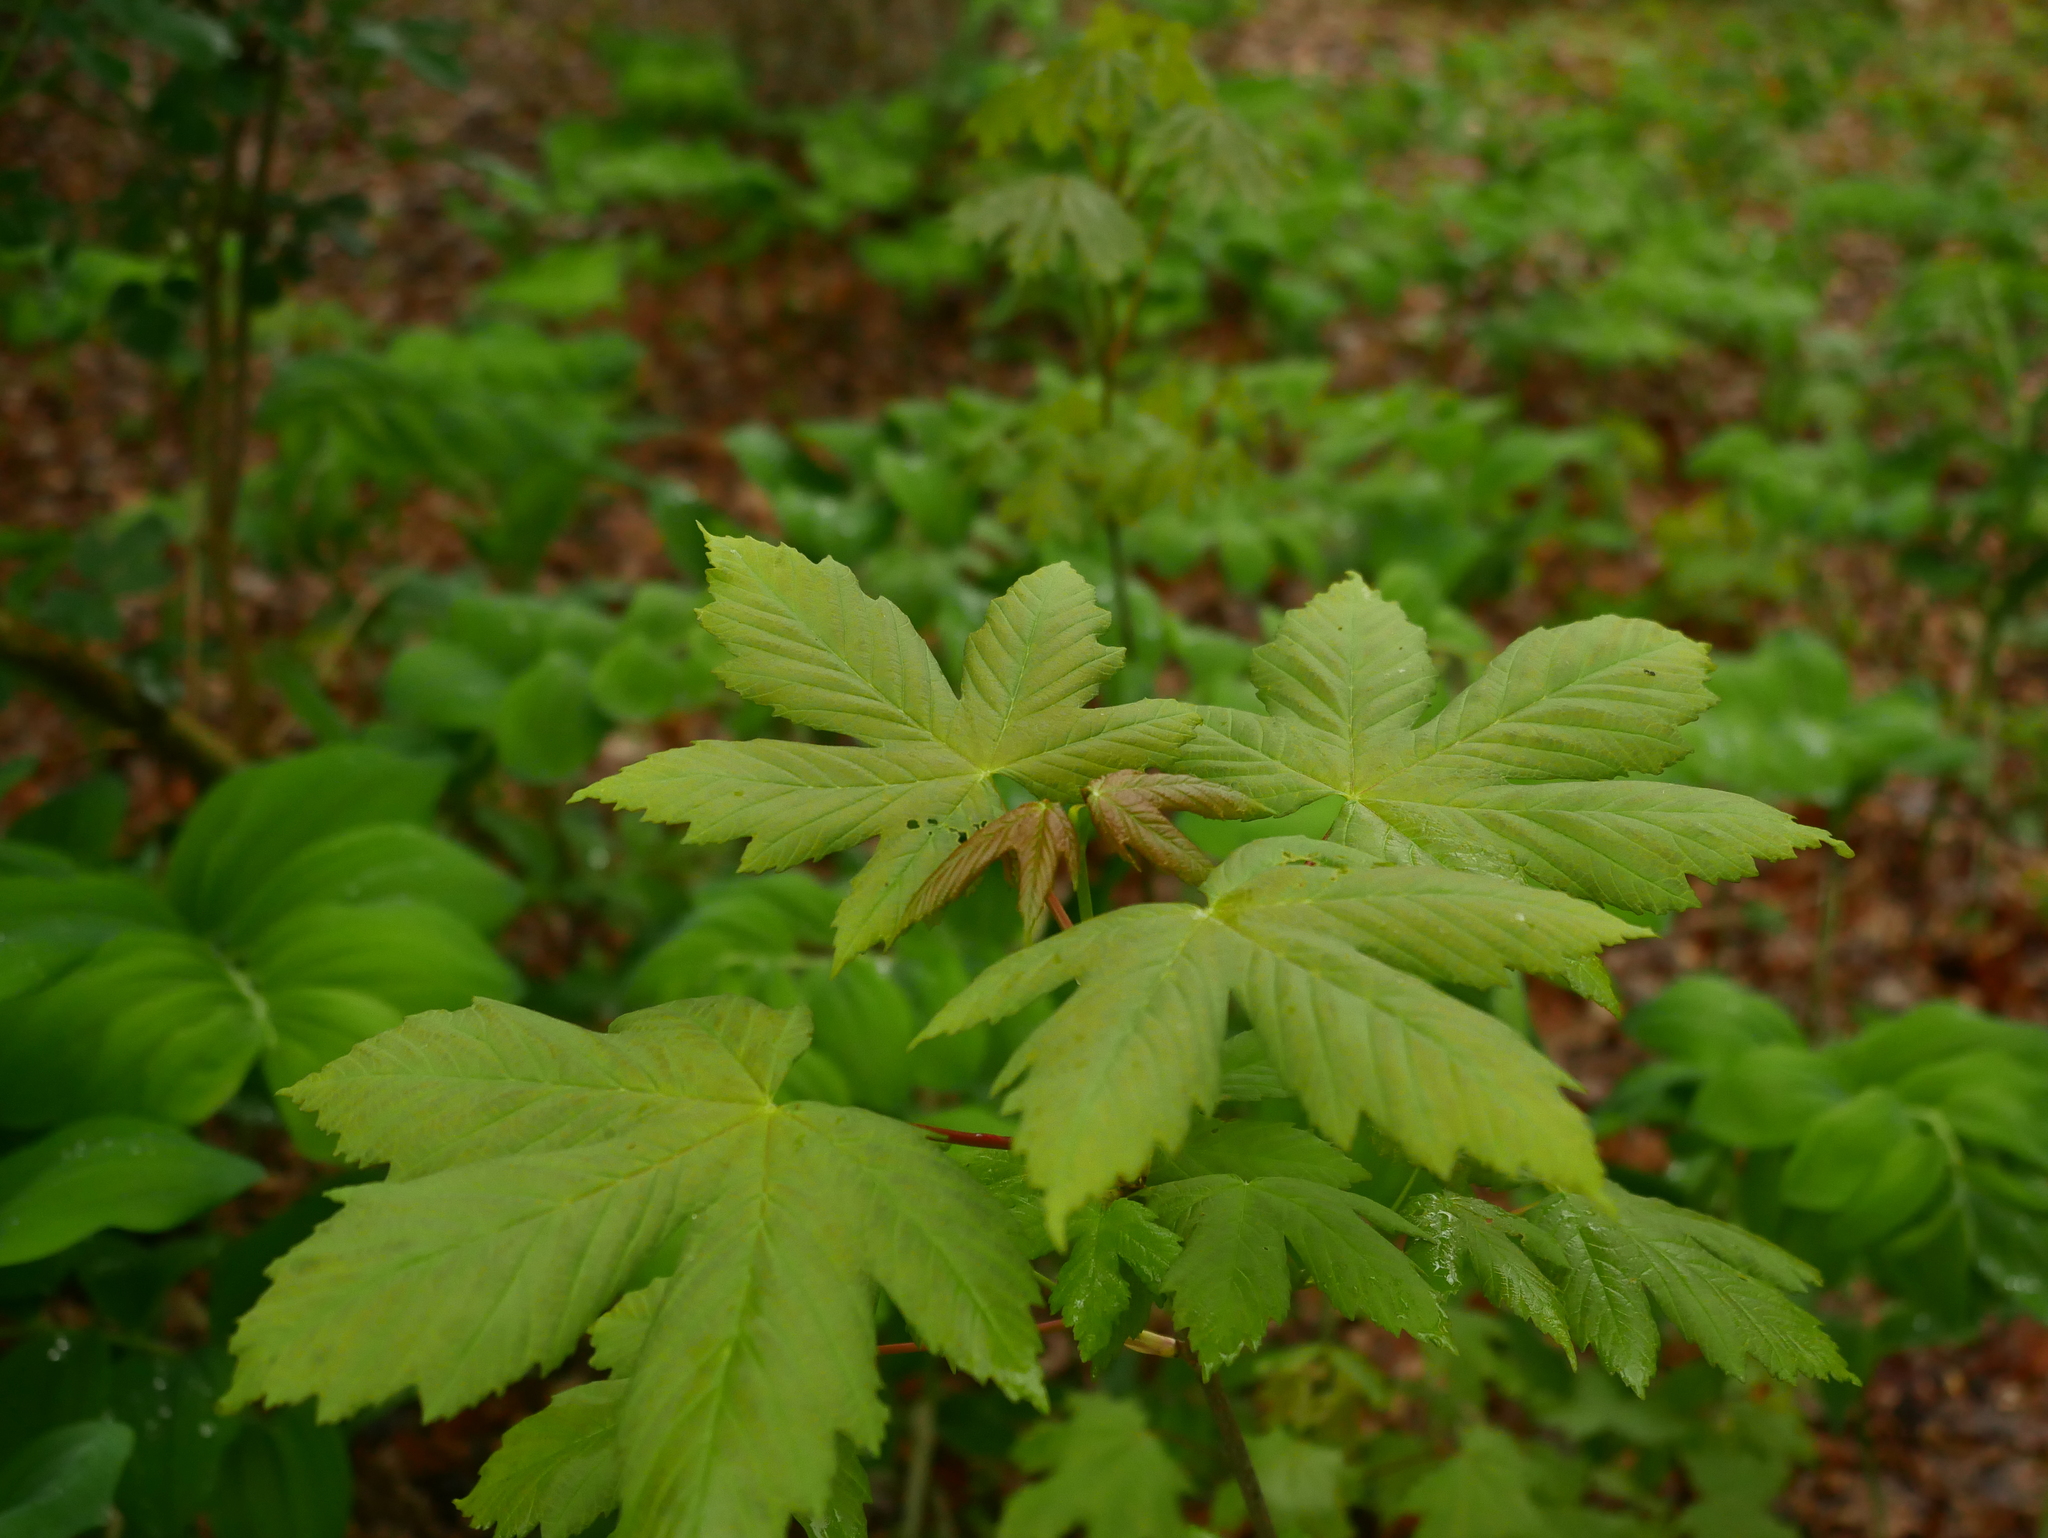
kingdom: Plantae
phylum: Tracheophyta
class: Magnoliopsida
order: Sapindales
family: Sapindaceae
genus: Acer
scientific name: Acer pseudoplatanus
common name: Sycamore
